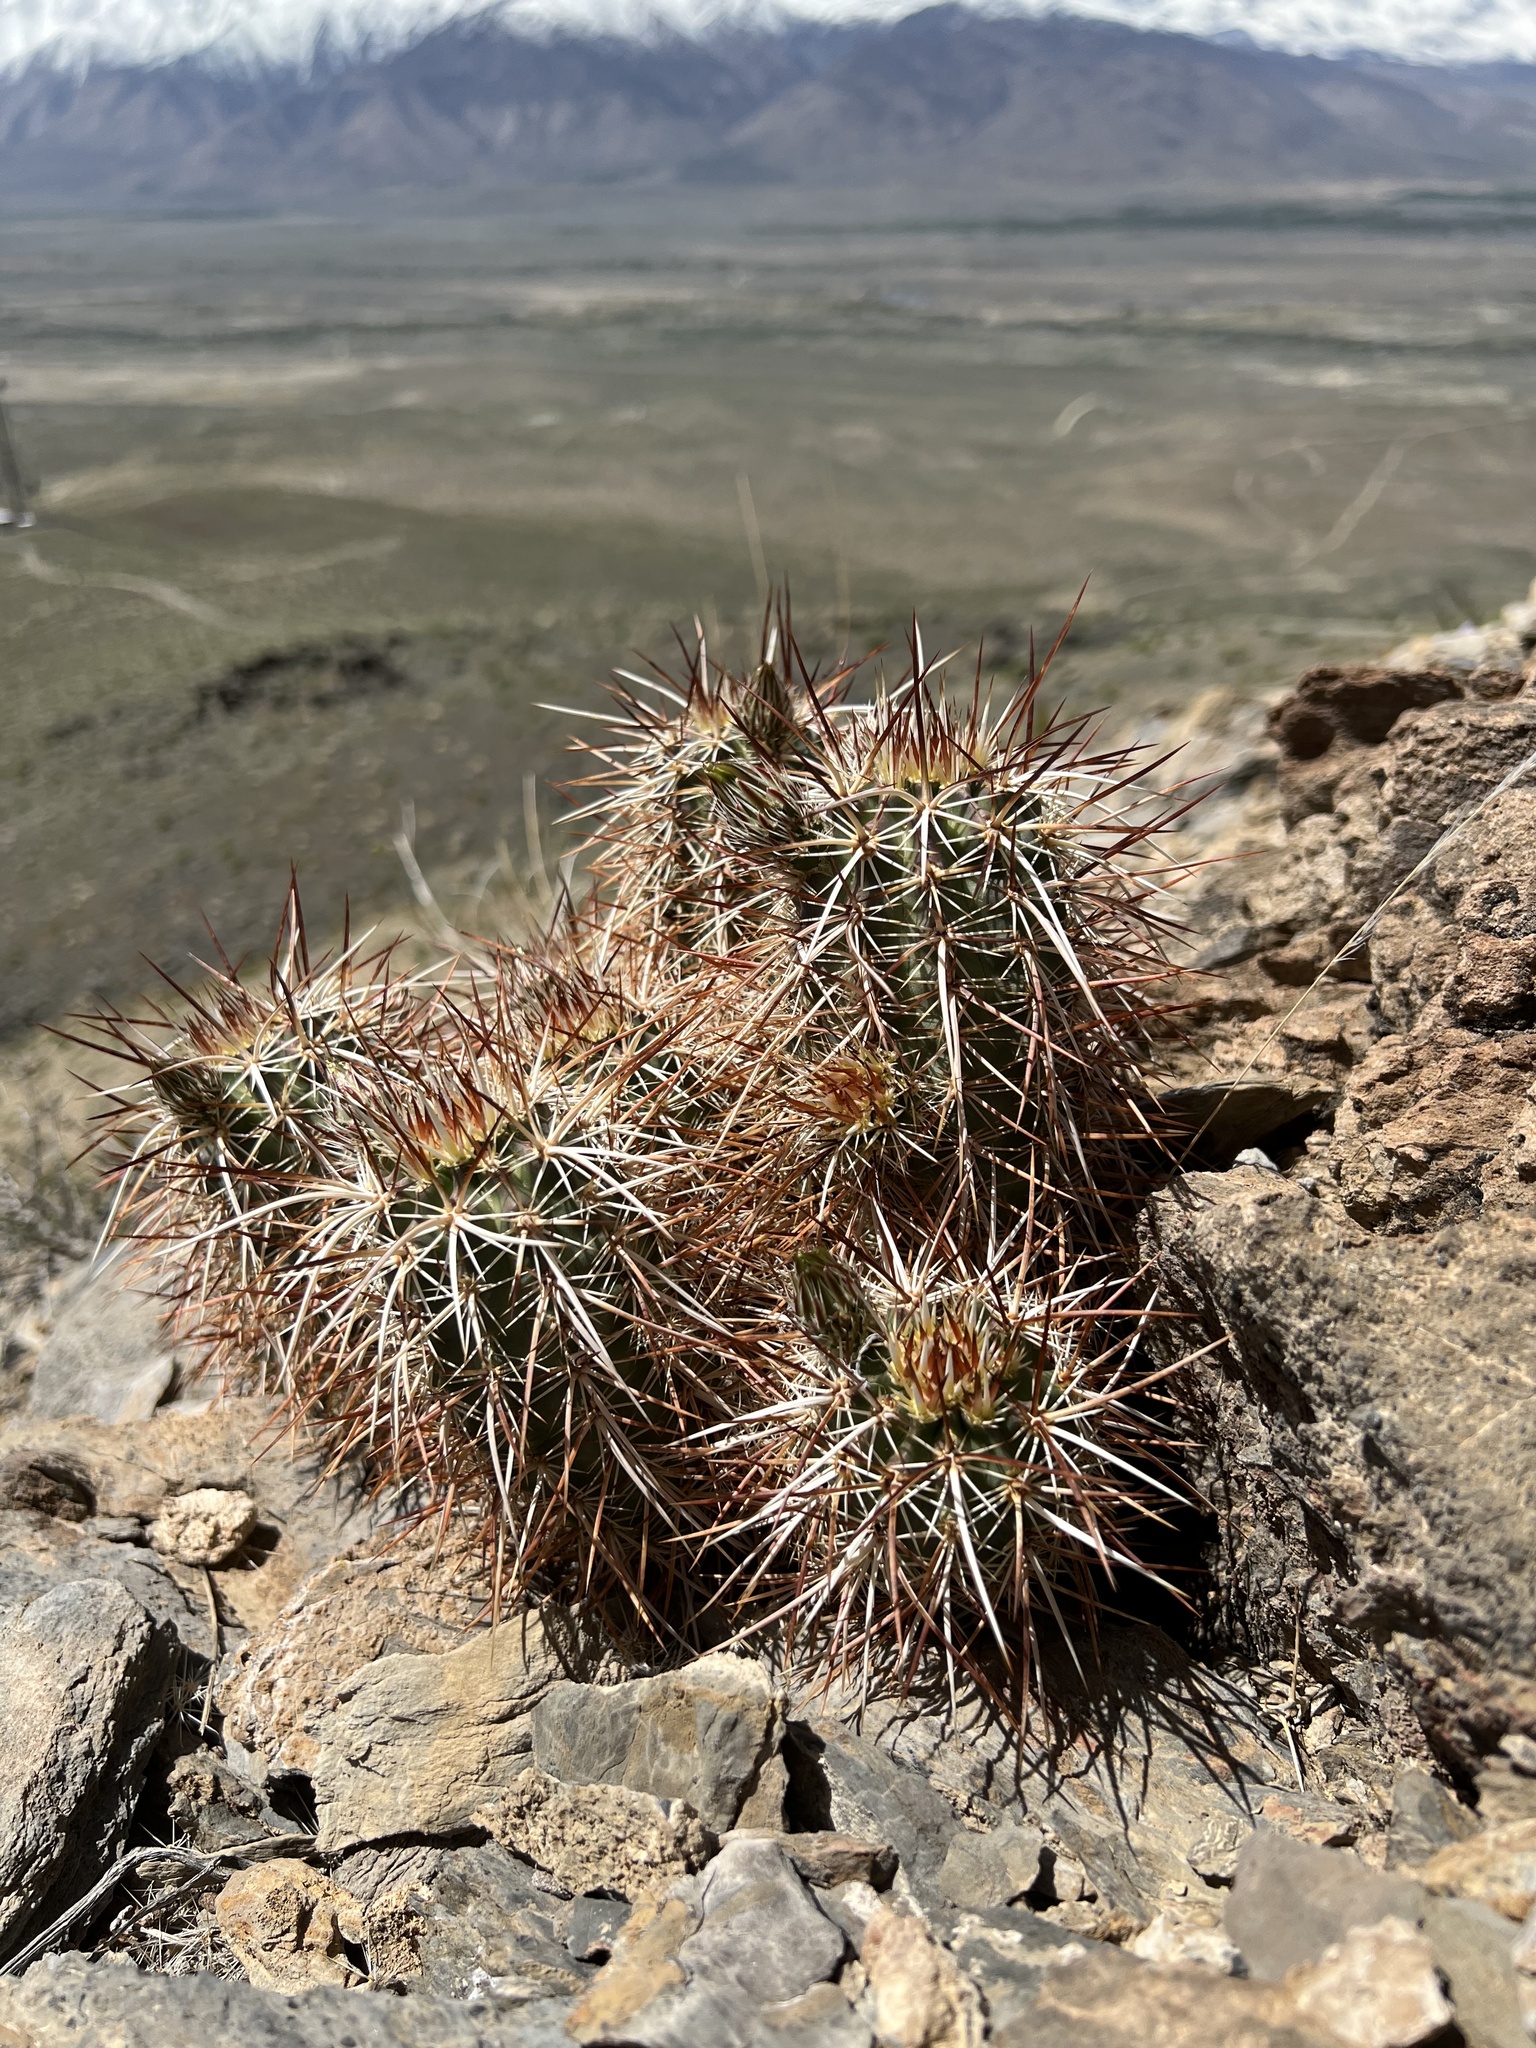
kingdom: Plantae
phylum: Tracheophyta
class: Magnoliopsida
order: Caryophyllales
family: Cactaceae
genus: Echinocereus
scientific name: Echinocereus engelmannii
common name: Engelmann's hedgehog cactus
